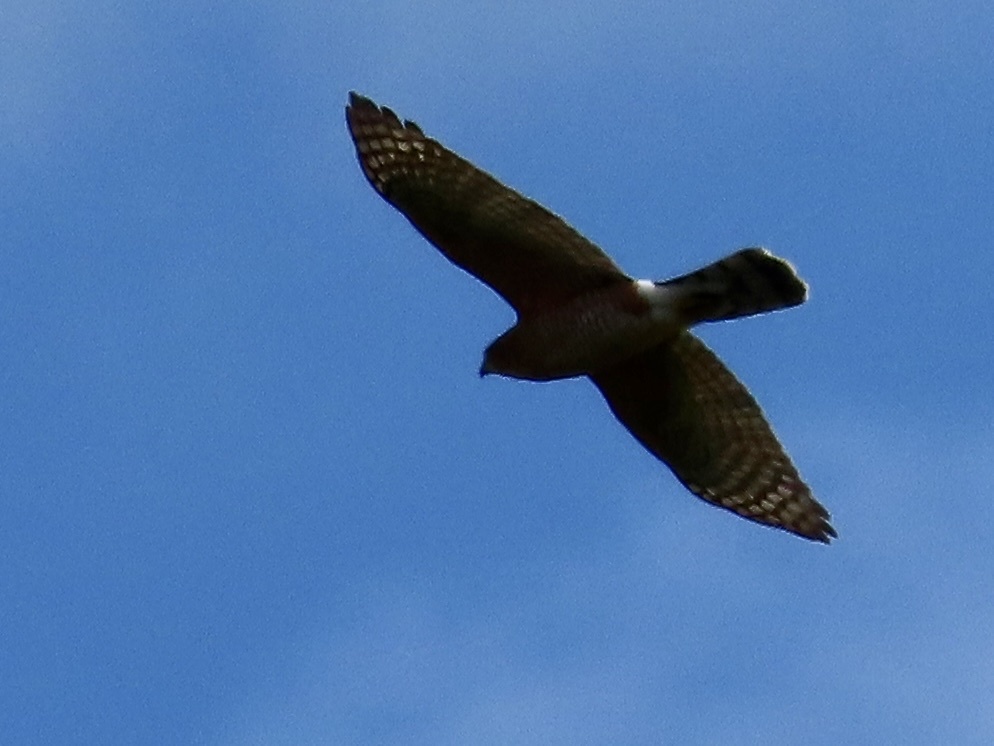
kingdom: Animalia
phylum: Chordata
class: Aves
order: Accipitriformes
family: Accipitridae
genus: Accipiter
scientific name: Accipiter cooperii
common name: Cooper's hawk
